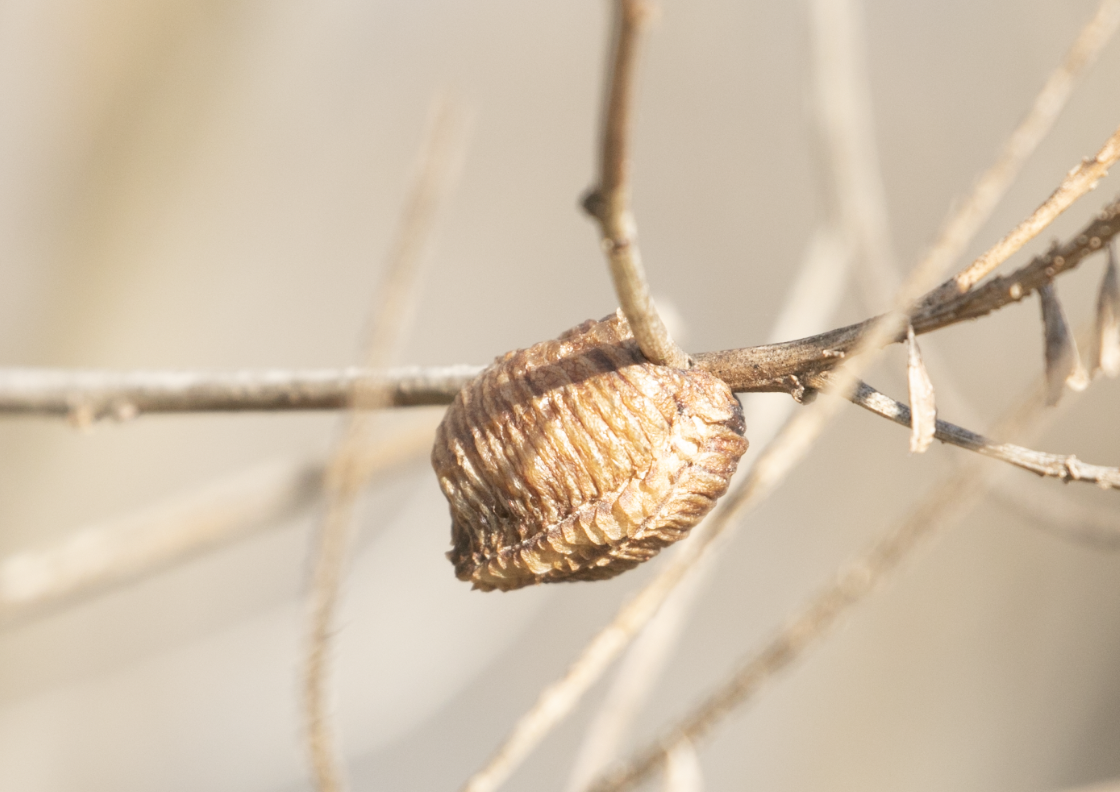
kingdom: Animalia
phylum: Arthropoda
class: Insecta
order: Mantodea
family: Mantidae
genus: Hierodula
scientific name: Hierodula transcaucasica
